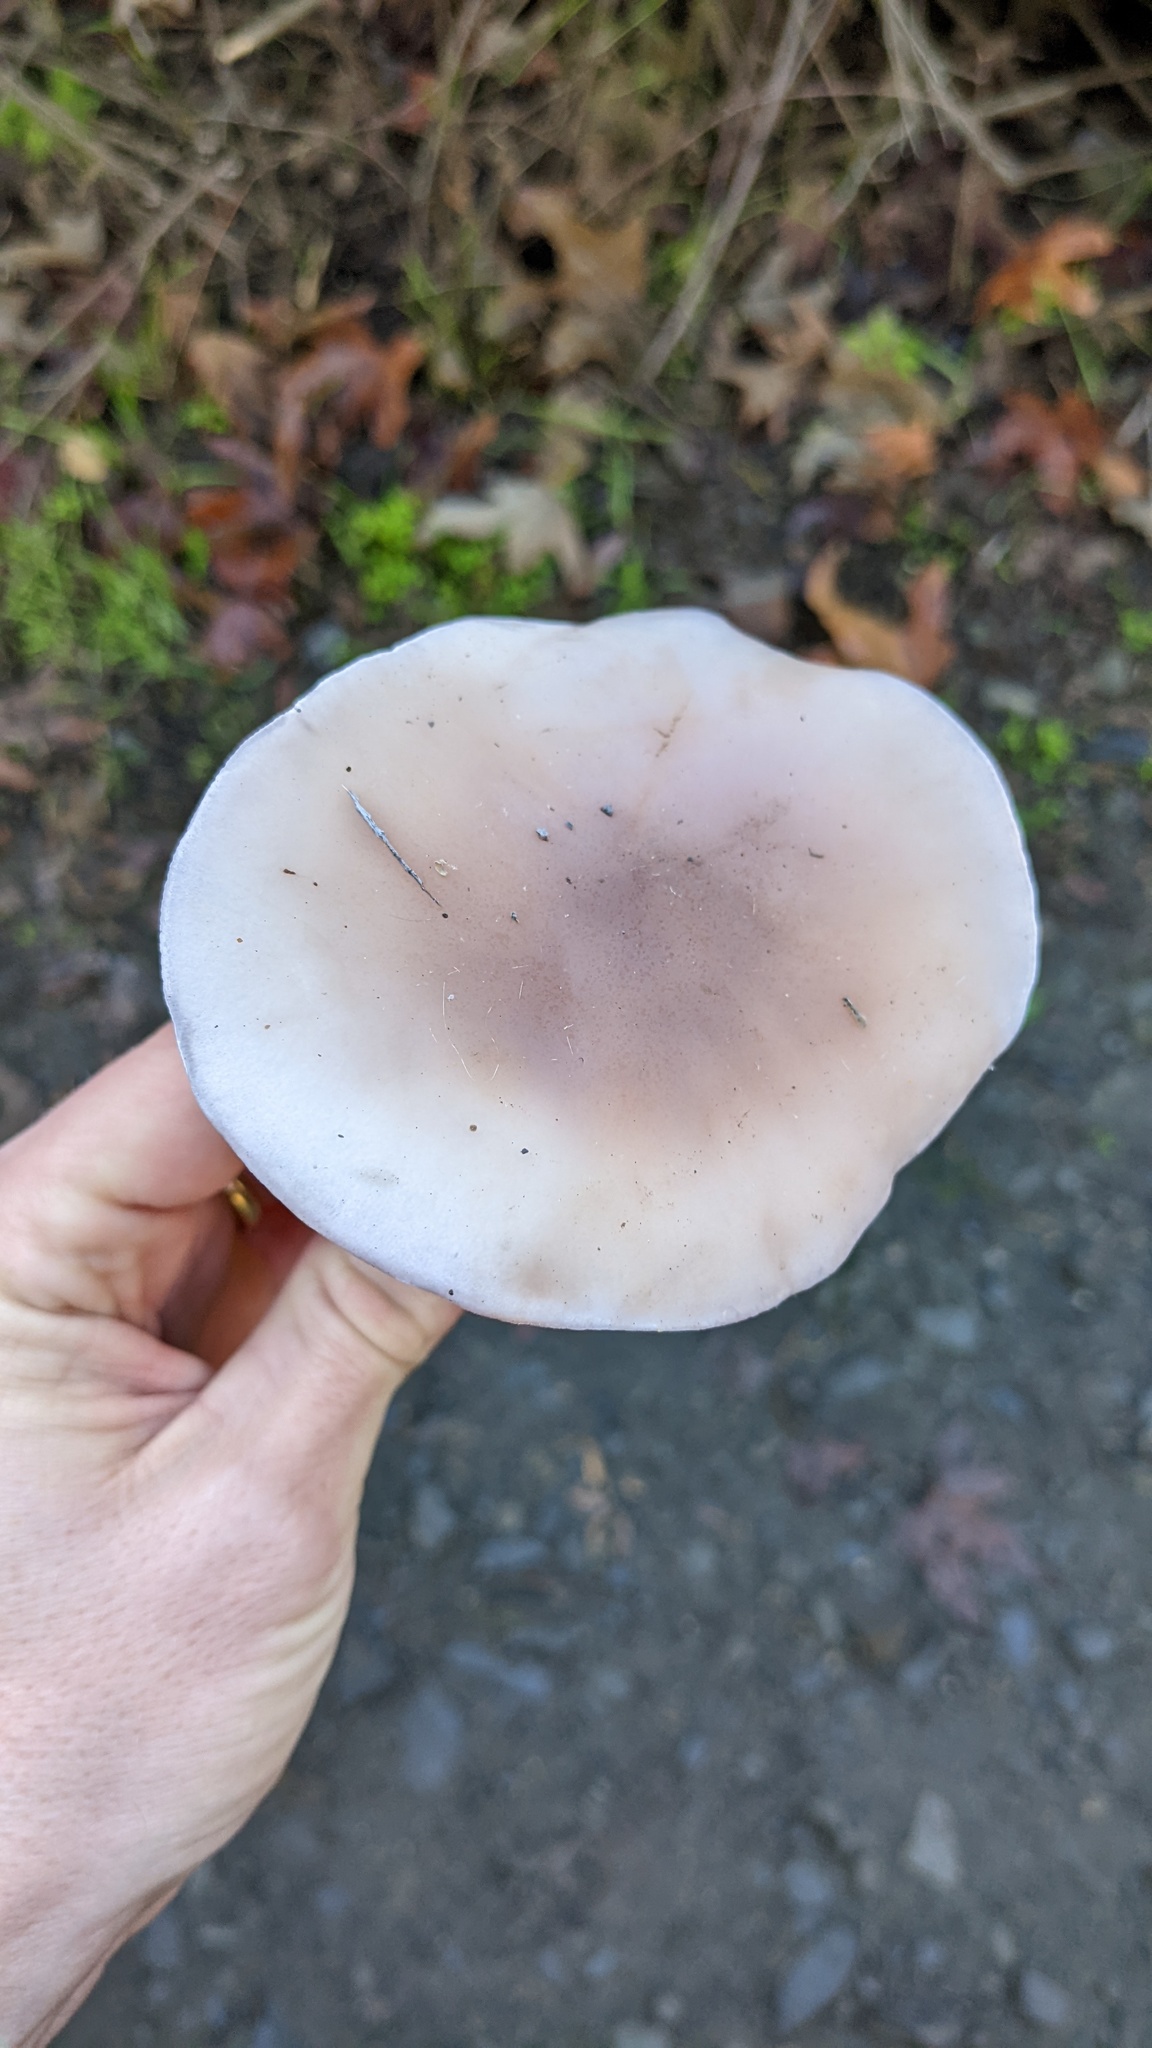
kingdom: Fungi
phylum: Basidiomycota
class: Agaricomycetes
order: Agaricales
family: Tricholomataceae
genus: Collybia
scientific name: Collybia
